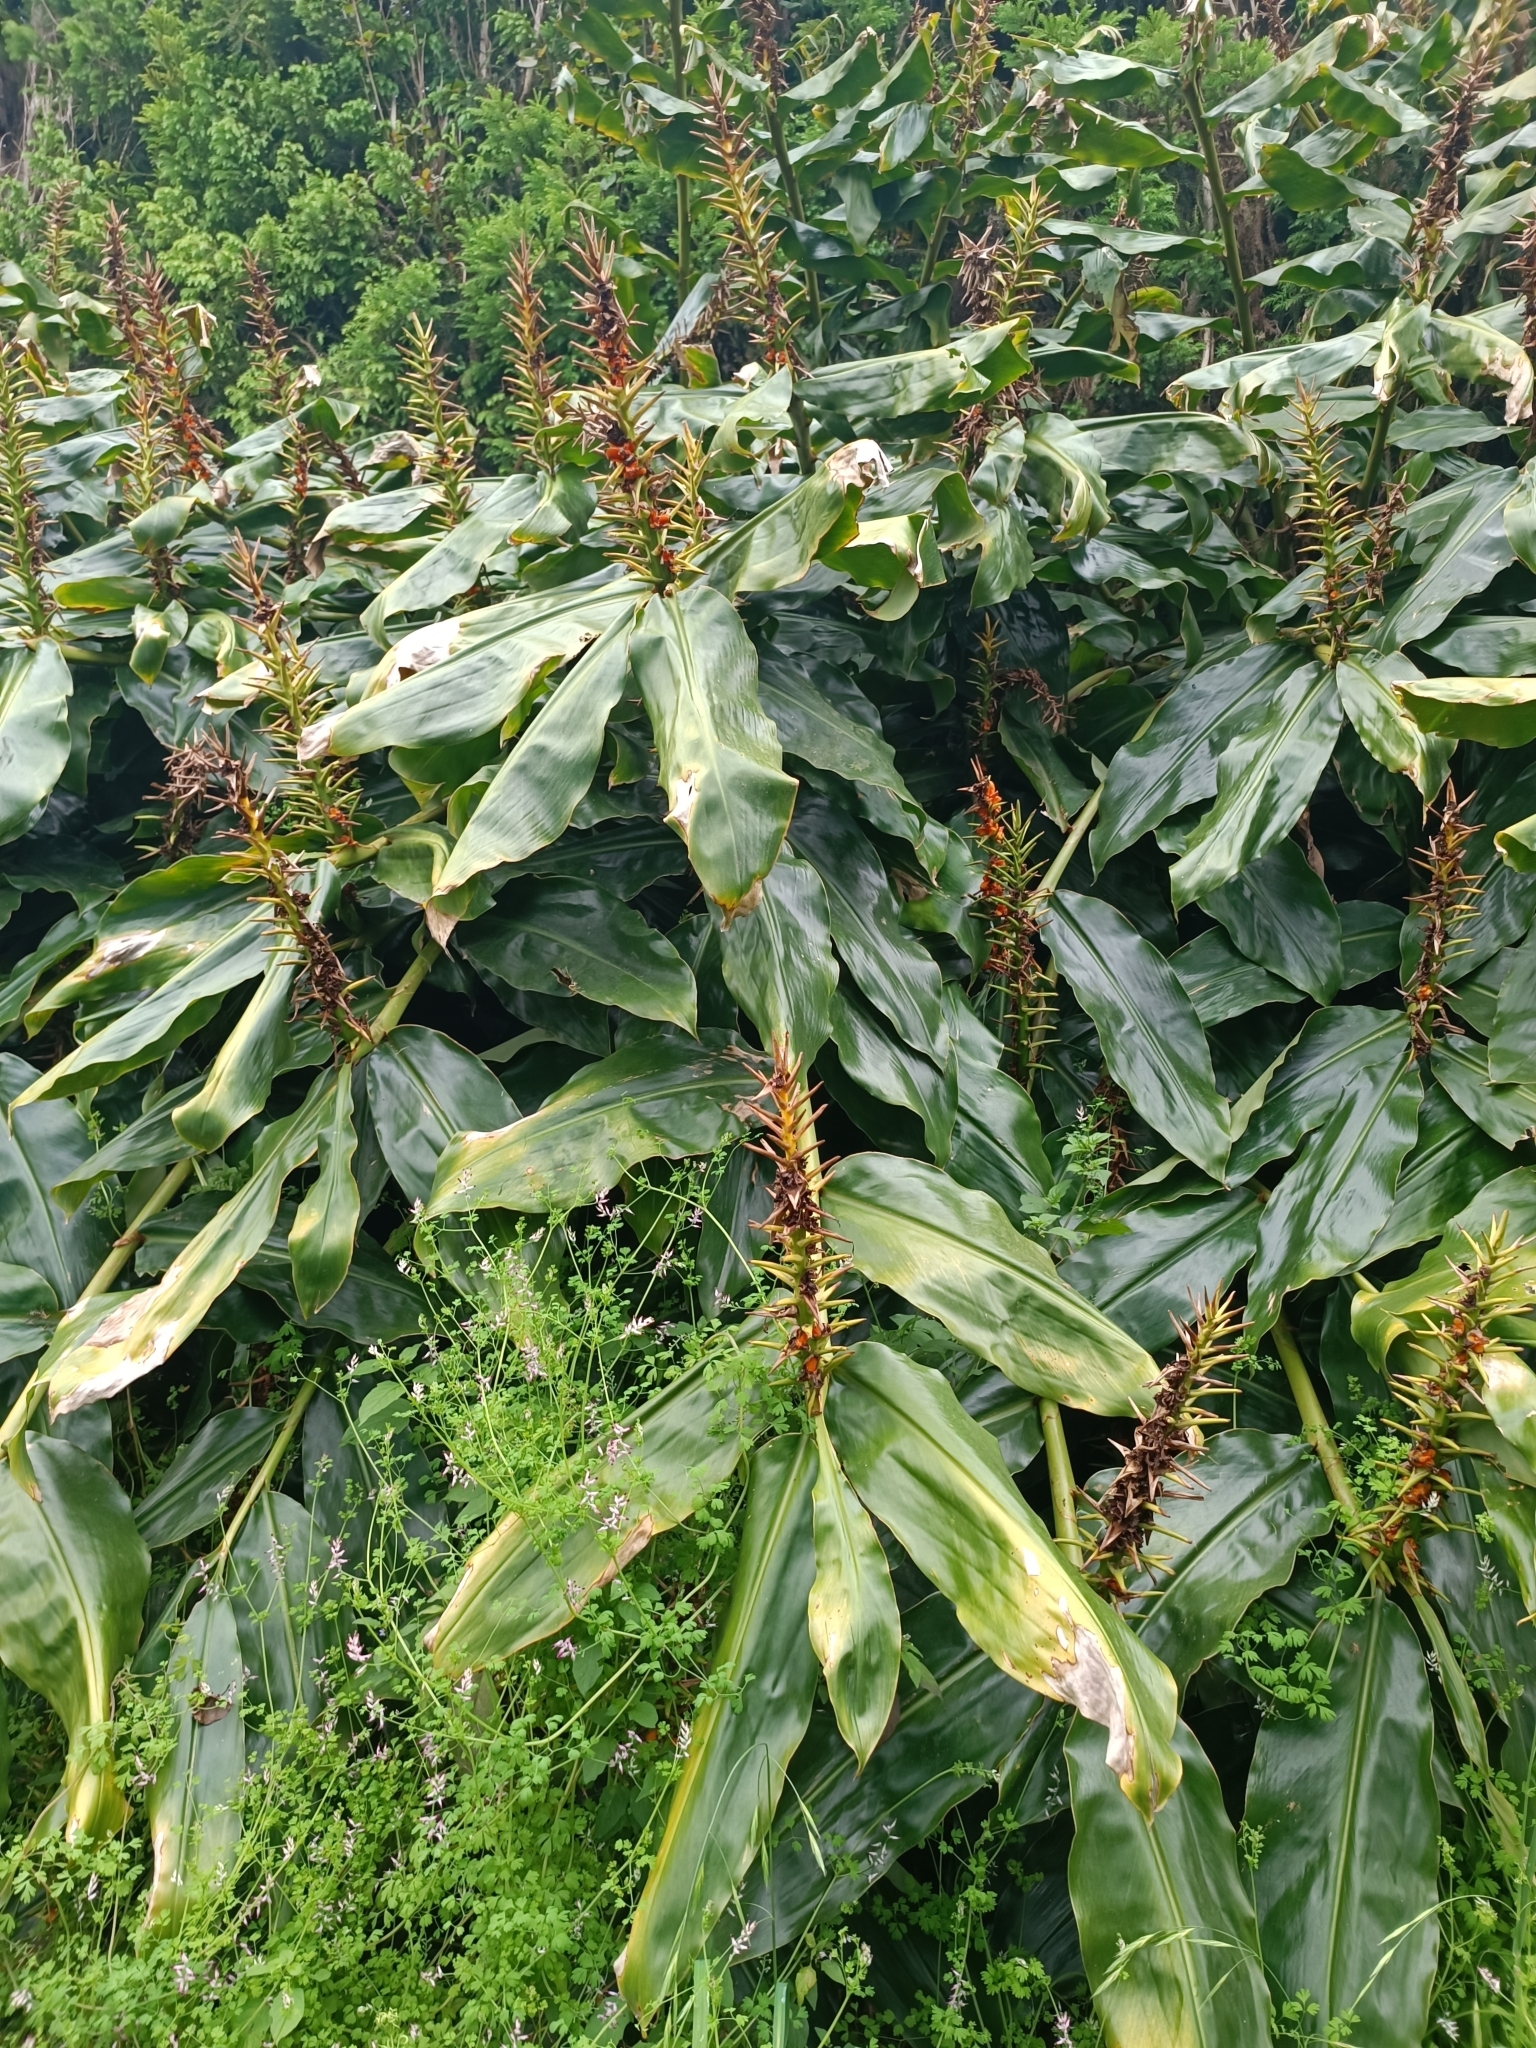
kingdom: Plantae
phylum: Tracheophyta
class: Liliopsida
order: Zingiberales
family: Zingiberaceae
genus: Hedychium
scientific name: Hedychium gardnerianum
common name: Himalayan ginger
